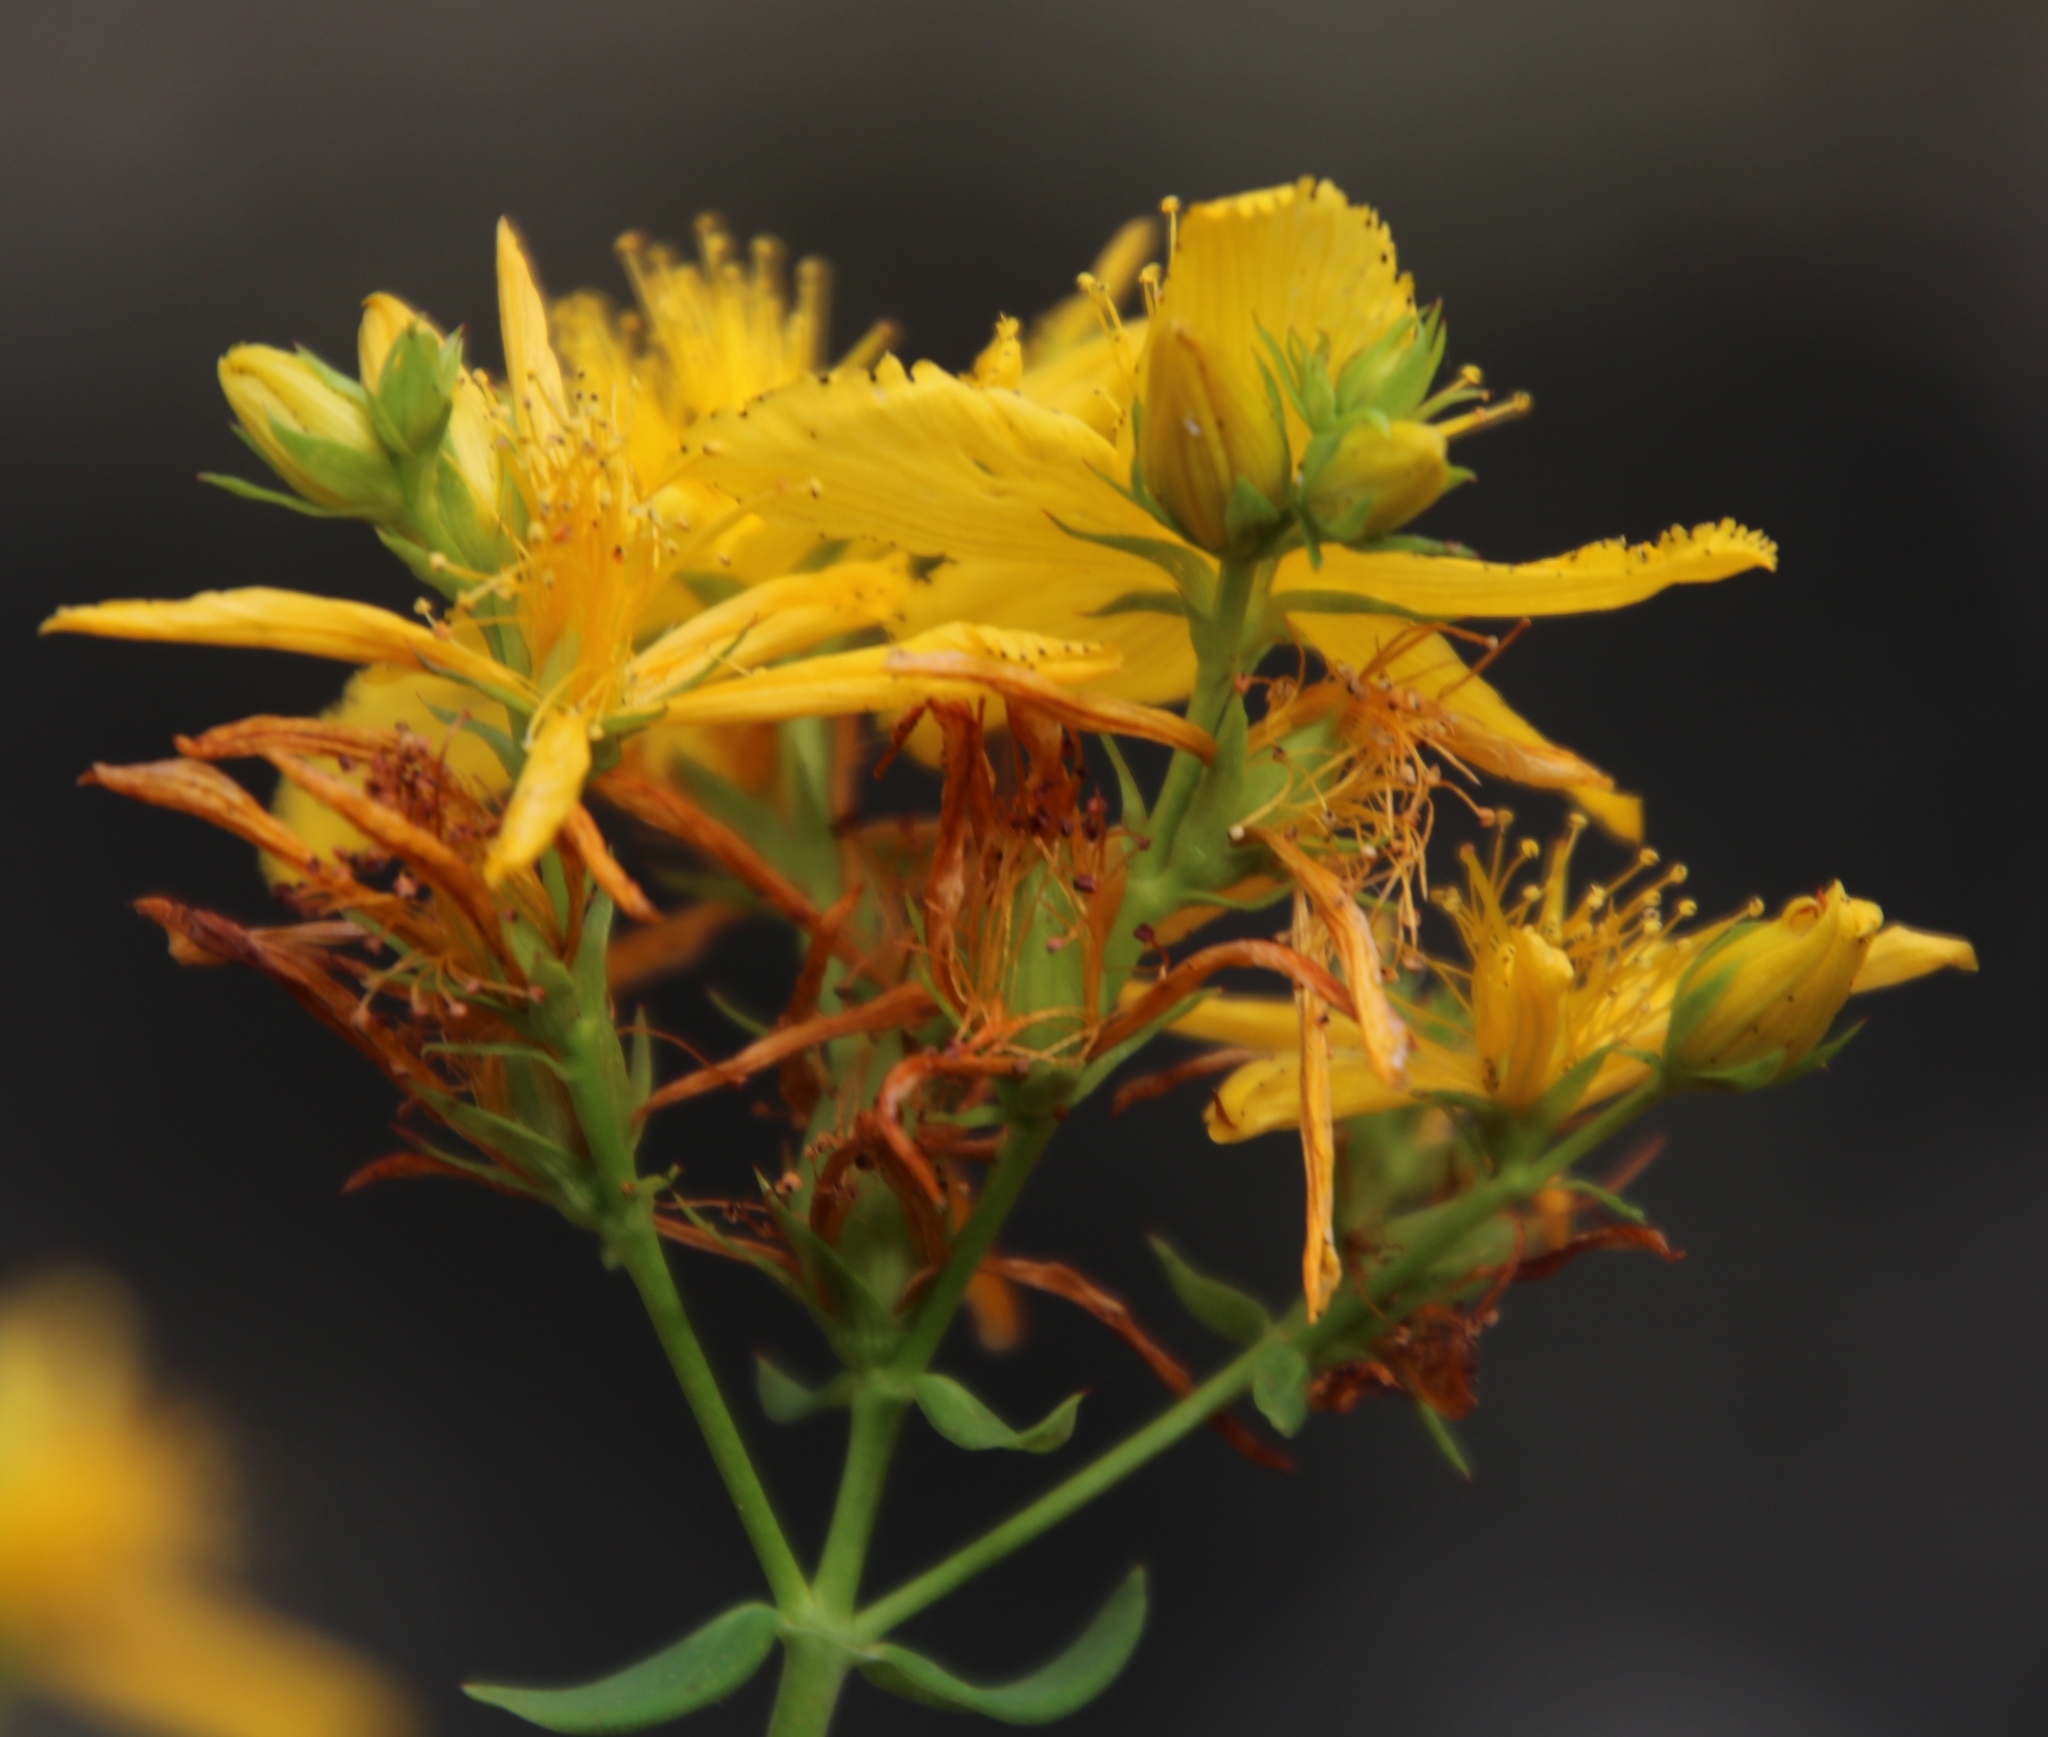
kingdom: Plantae
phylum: Tracheophyta
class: Magnoliopsida
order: Malpighiales
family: Hypericaceae
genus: Hypericum
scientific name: Hypericum perforatum
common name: Common st. johnswort
